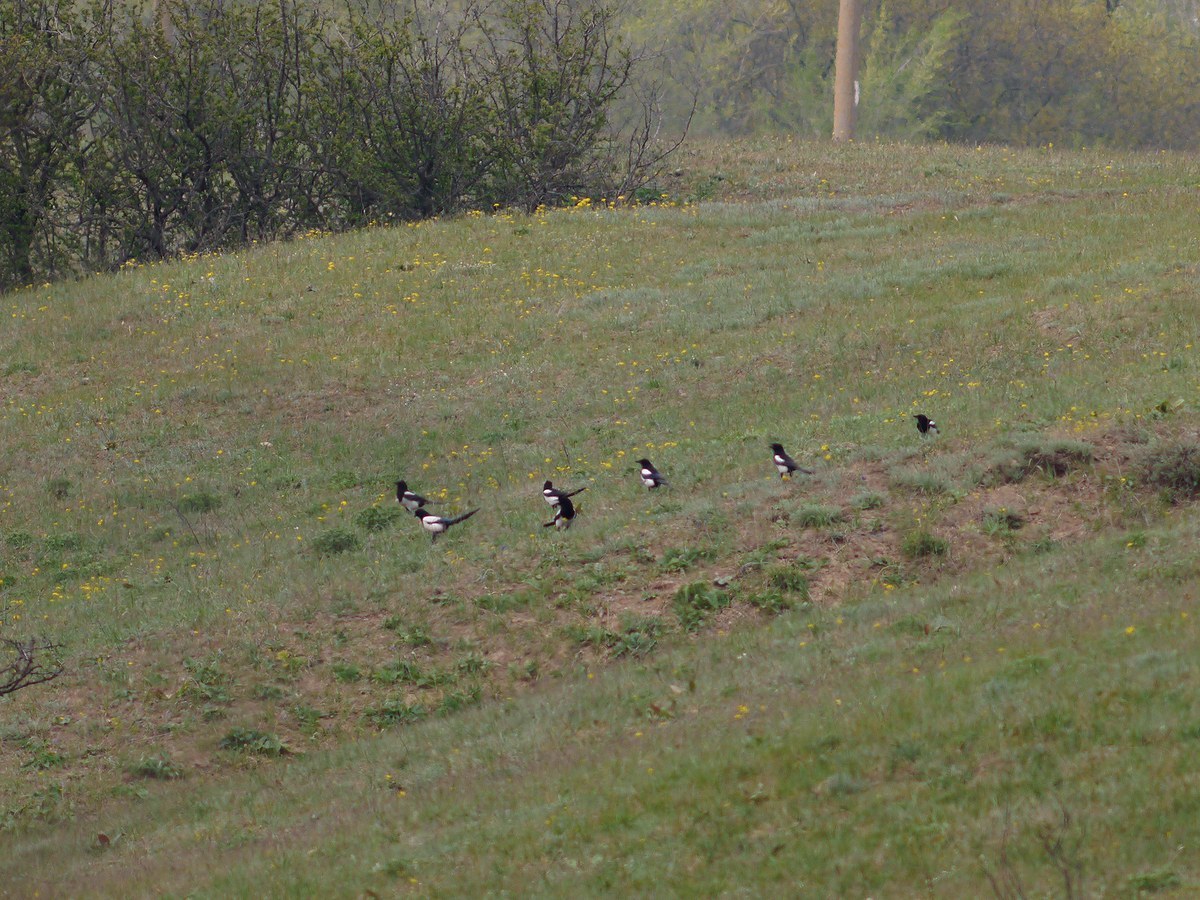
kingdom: Animalia
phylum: Chordata
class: Aves
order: Passeriformes
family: Corvidae
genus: Pica
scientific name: Pica pica
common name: Eurasian magpie
